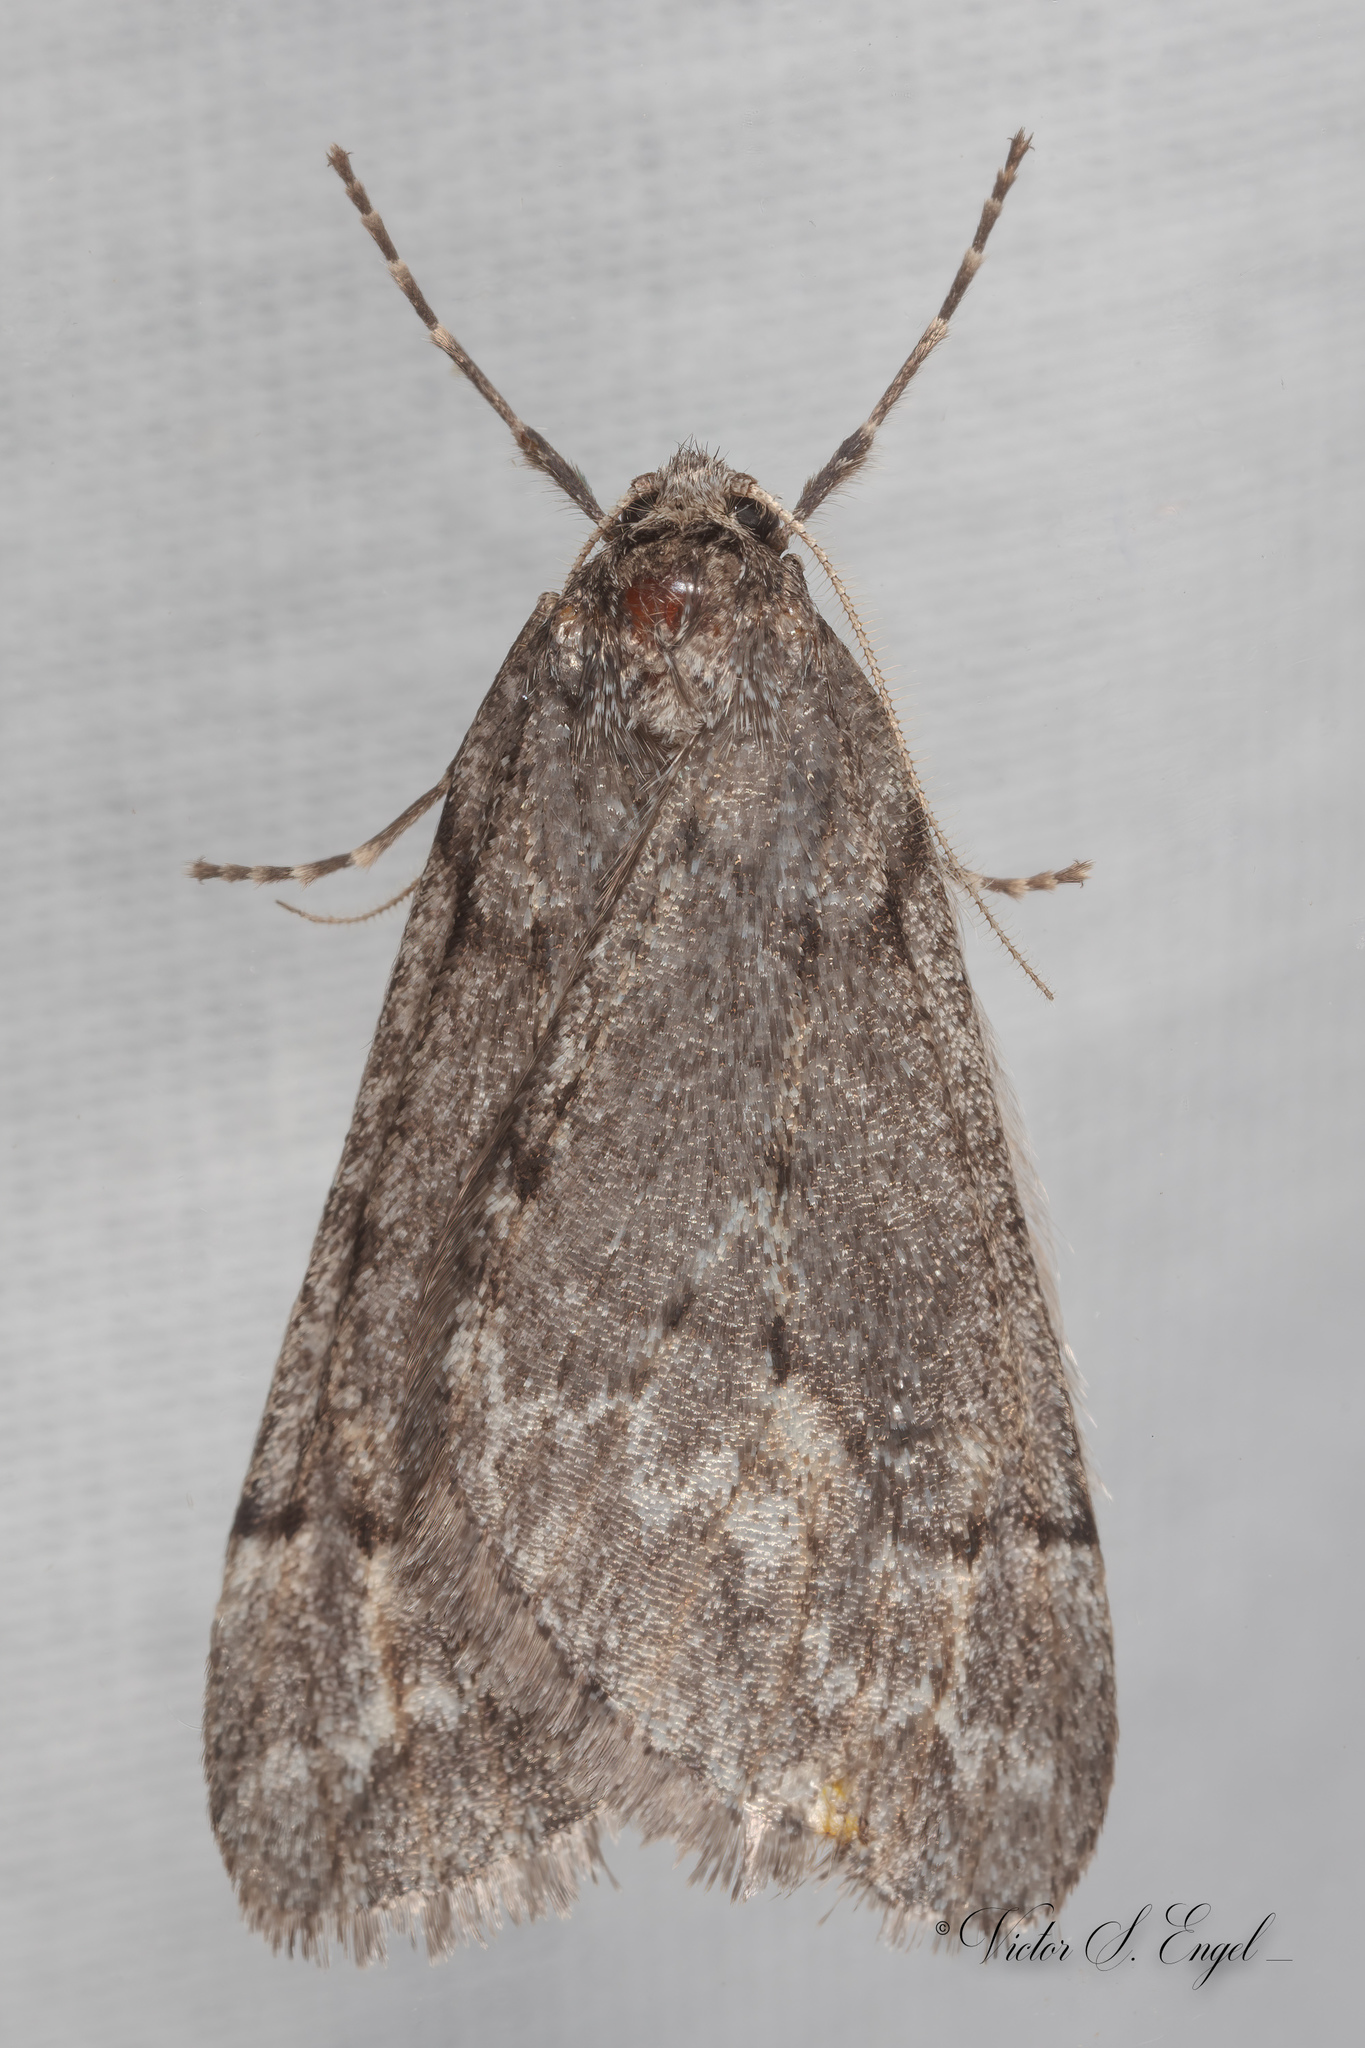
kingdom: Animalia
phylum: Arthropoda
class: Insecta
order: Lepidoptera
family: Geometridae
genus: Paleacrita
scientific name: Paleacrita vernata
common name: Spring cankerworm
